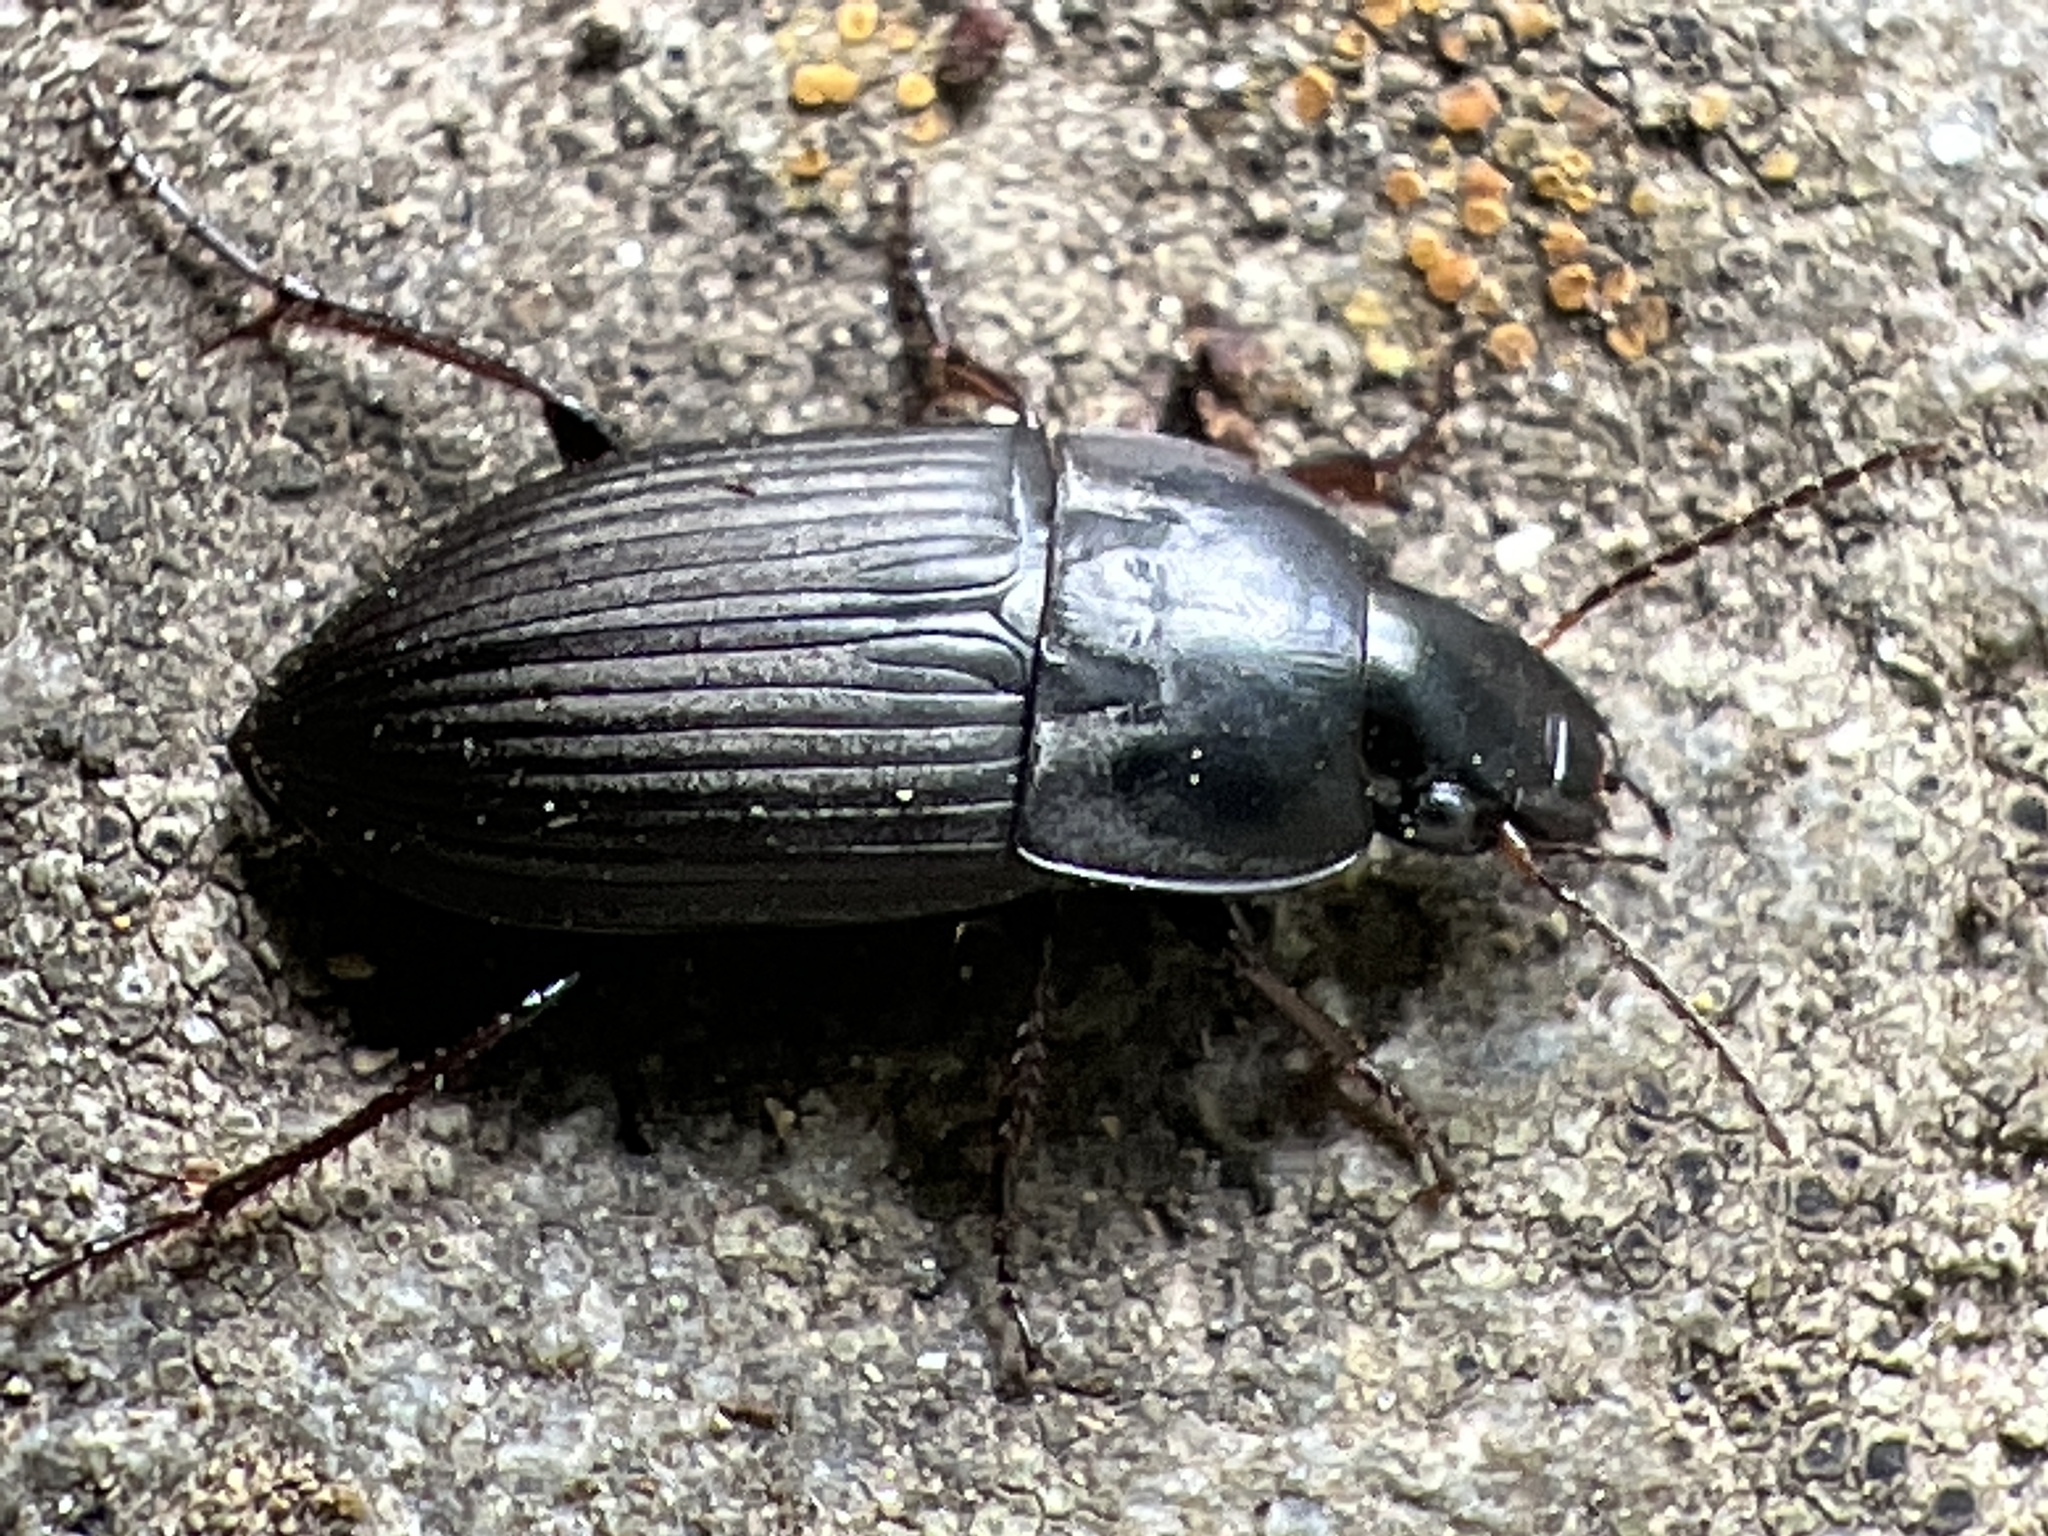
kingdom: Animalia
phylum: Arthropoda
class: Insecta
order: Coleoptera
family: Carabidae
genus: Anisodactylus
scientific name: Anisodactylus rusticus
